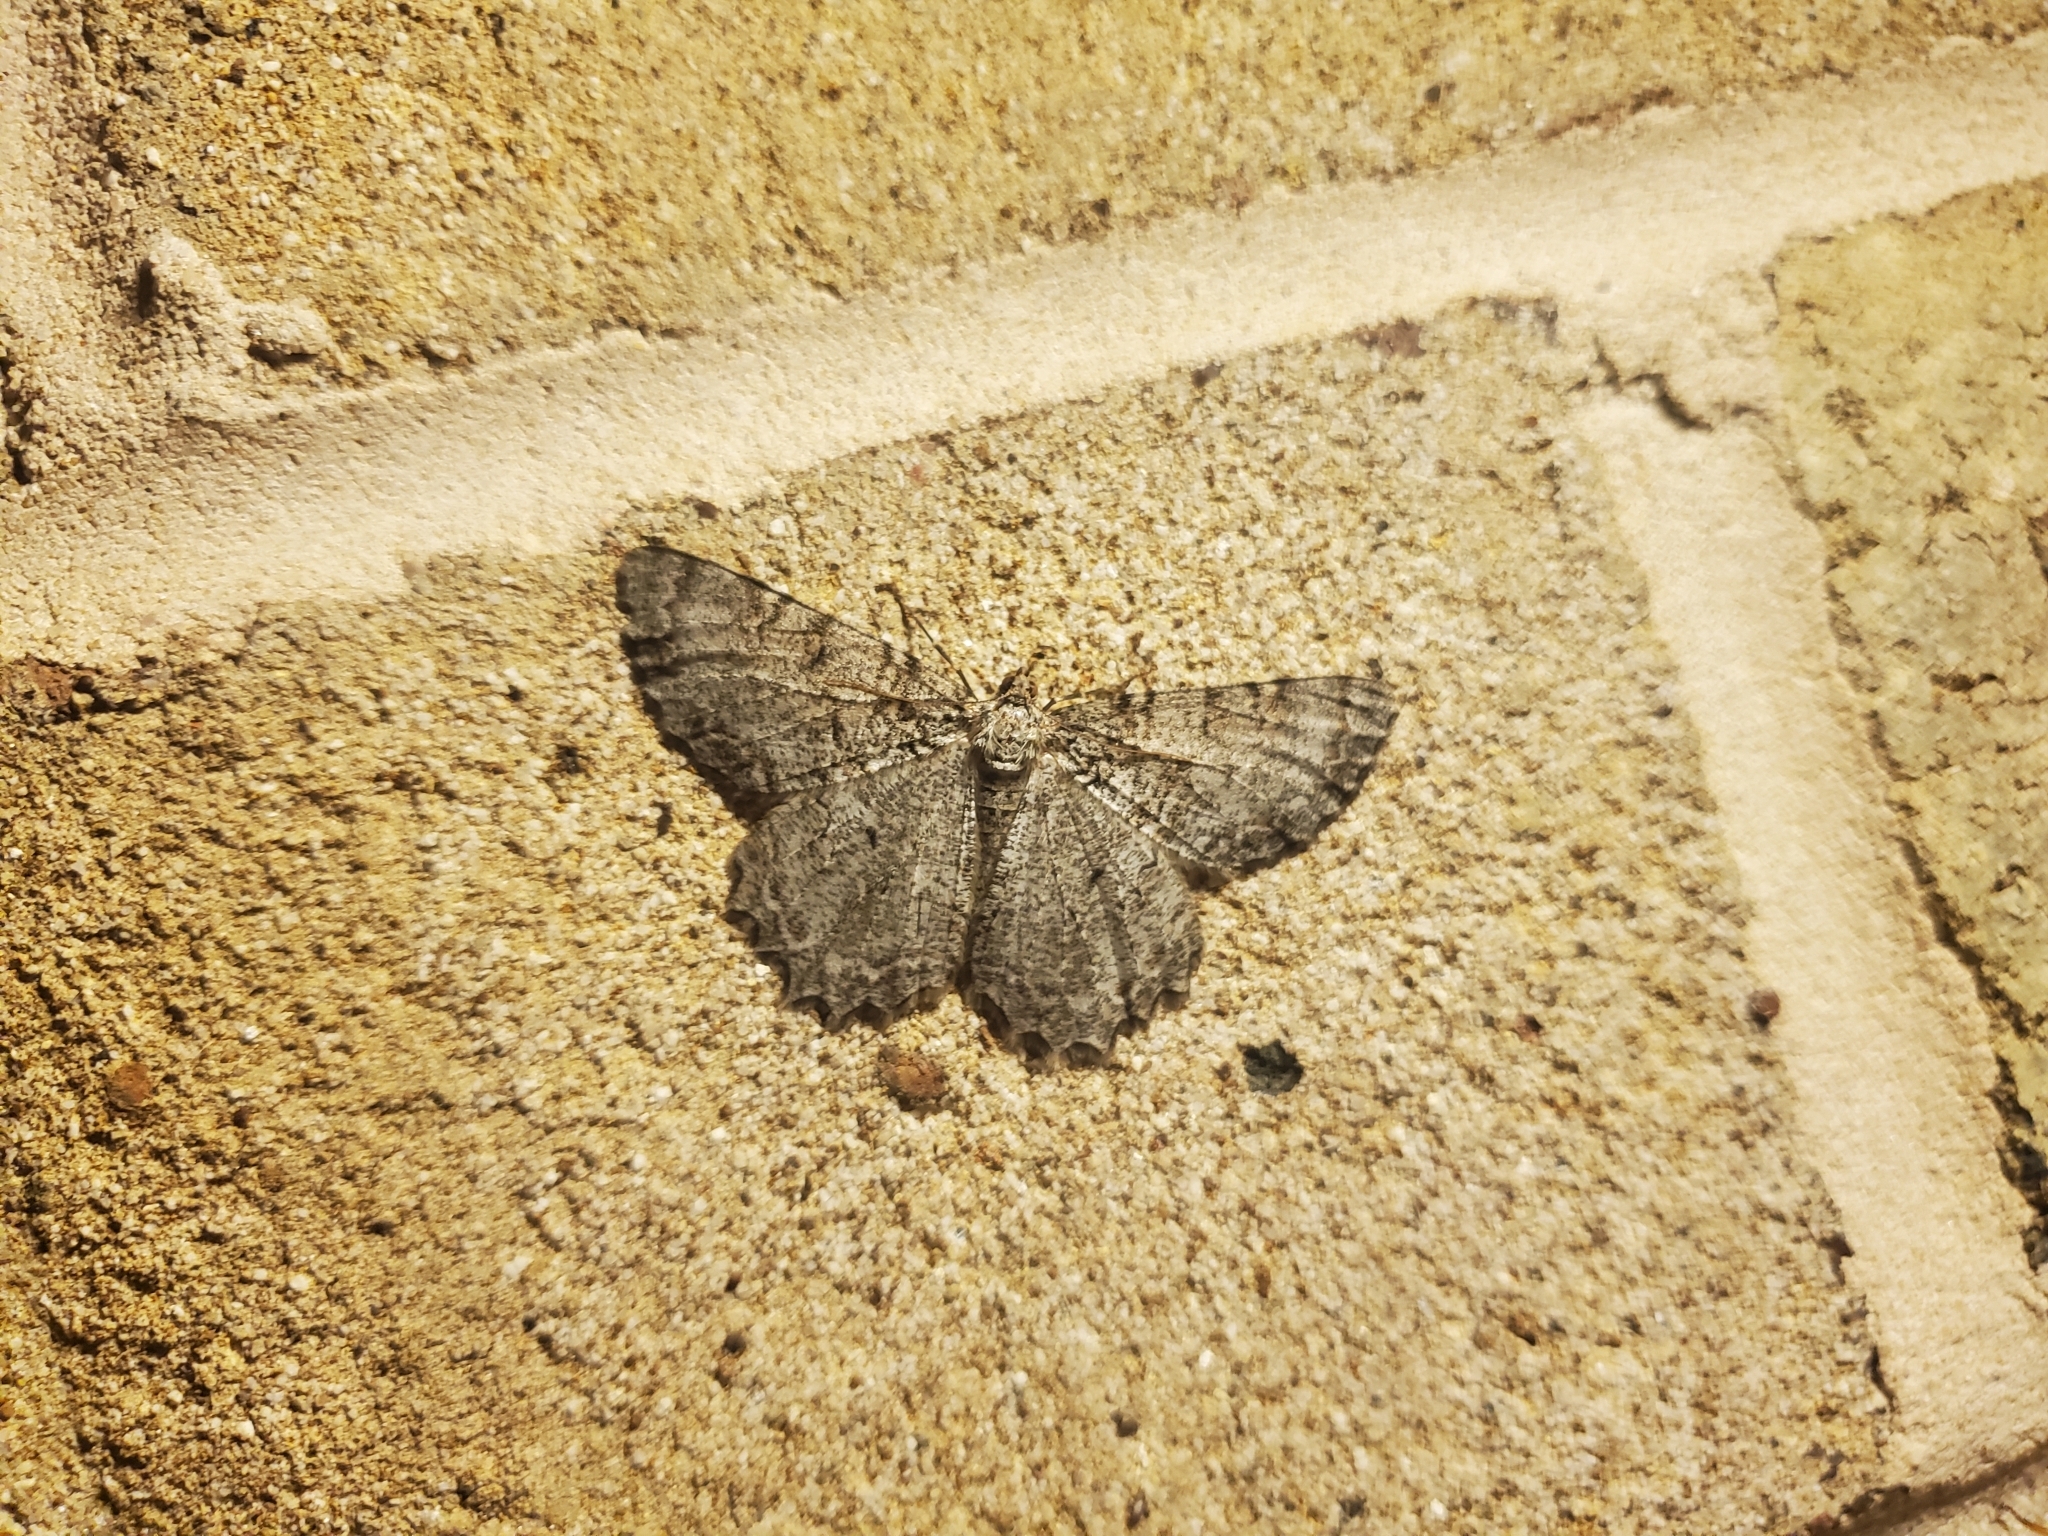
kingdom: Animalia
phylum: Arthropoda
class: Insecta
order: Lepidoptera
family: Geometridae
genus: Epimecis
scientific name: Epimecis hortaria
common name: Tulip-tree beauty
